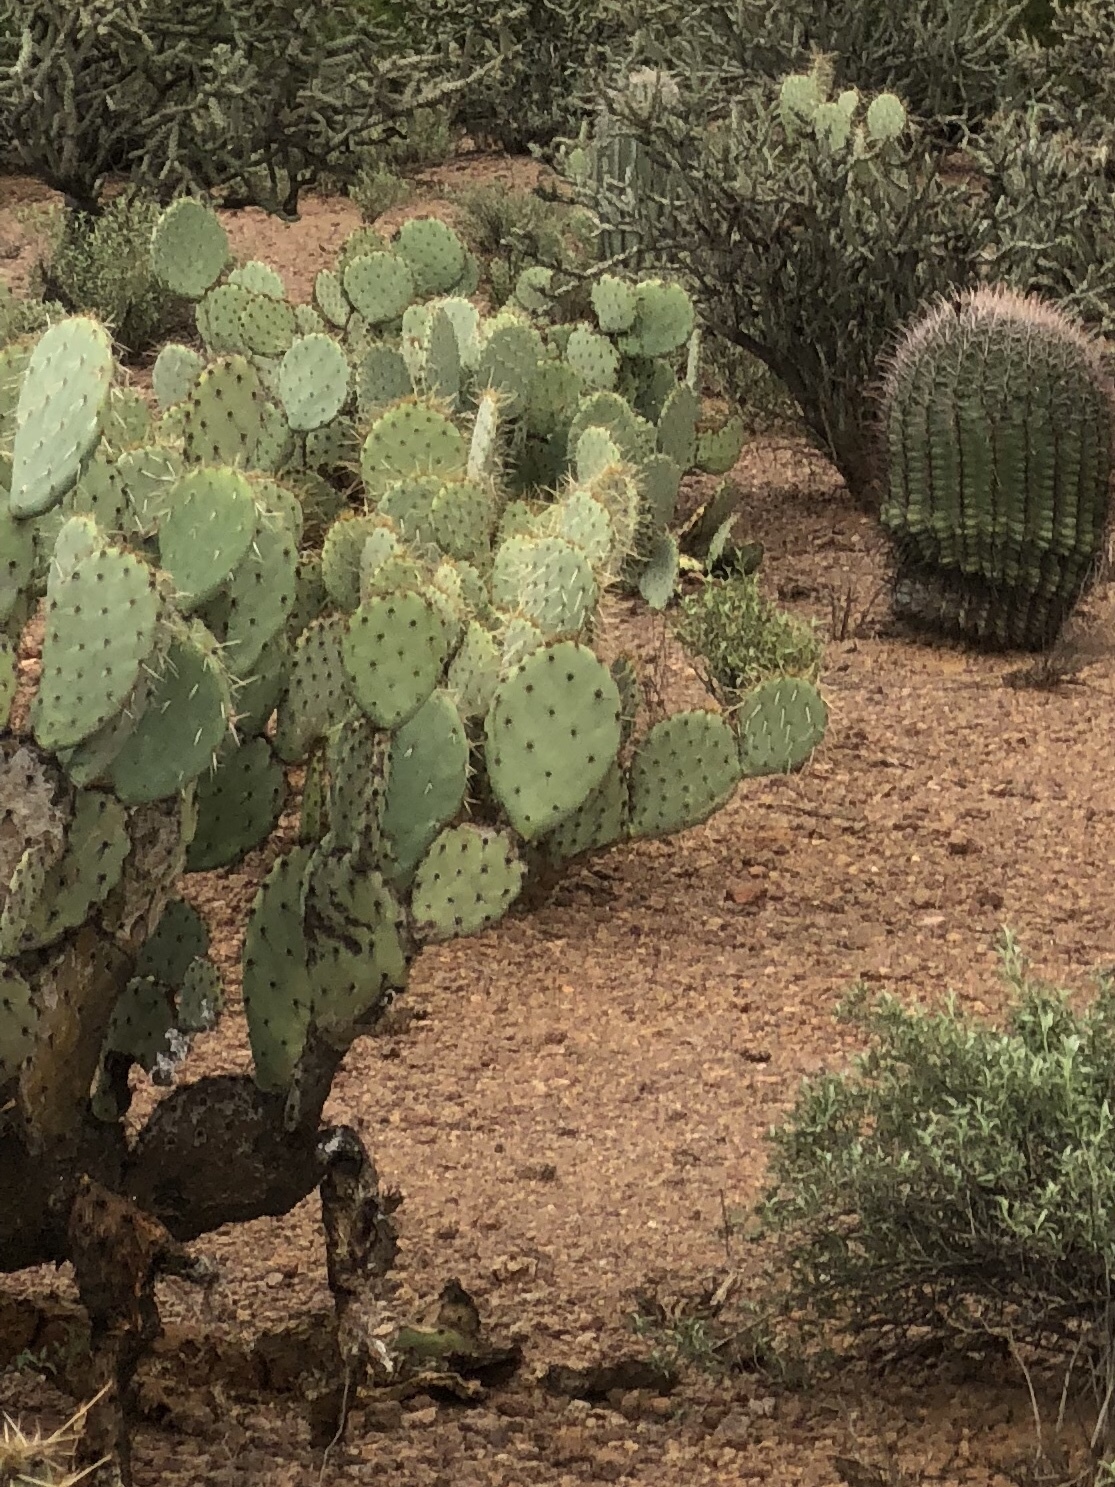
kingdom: Plantae
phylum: Tracheophyta
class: Magnoliopsida
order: Caryophyllales
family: Cactaceae
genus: Opuntia
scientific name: Opuntia engelmannii
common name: Cactus-apple
